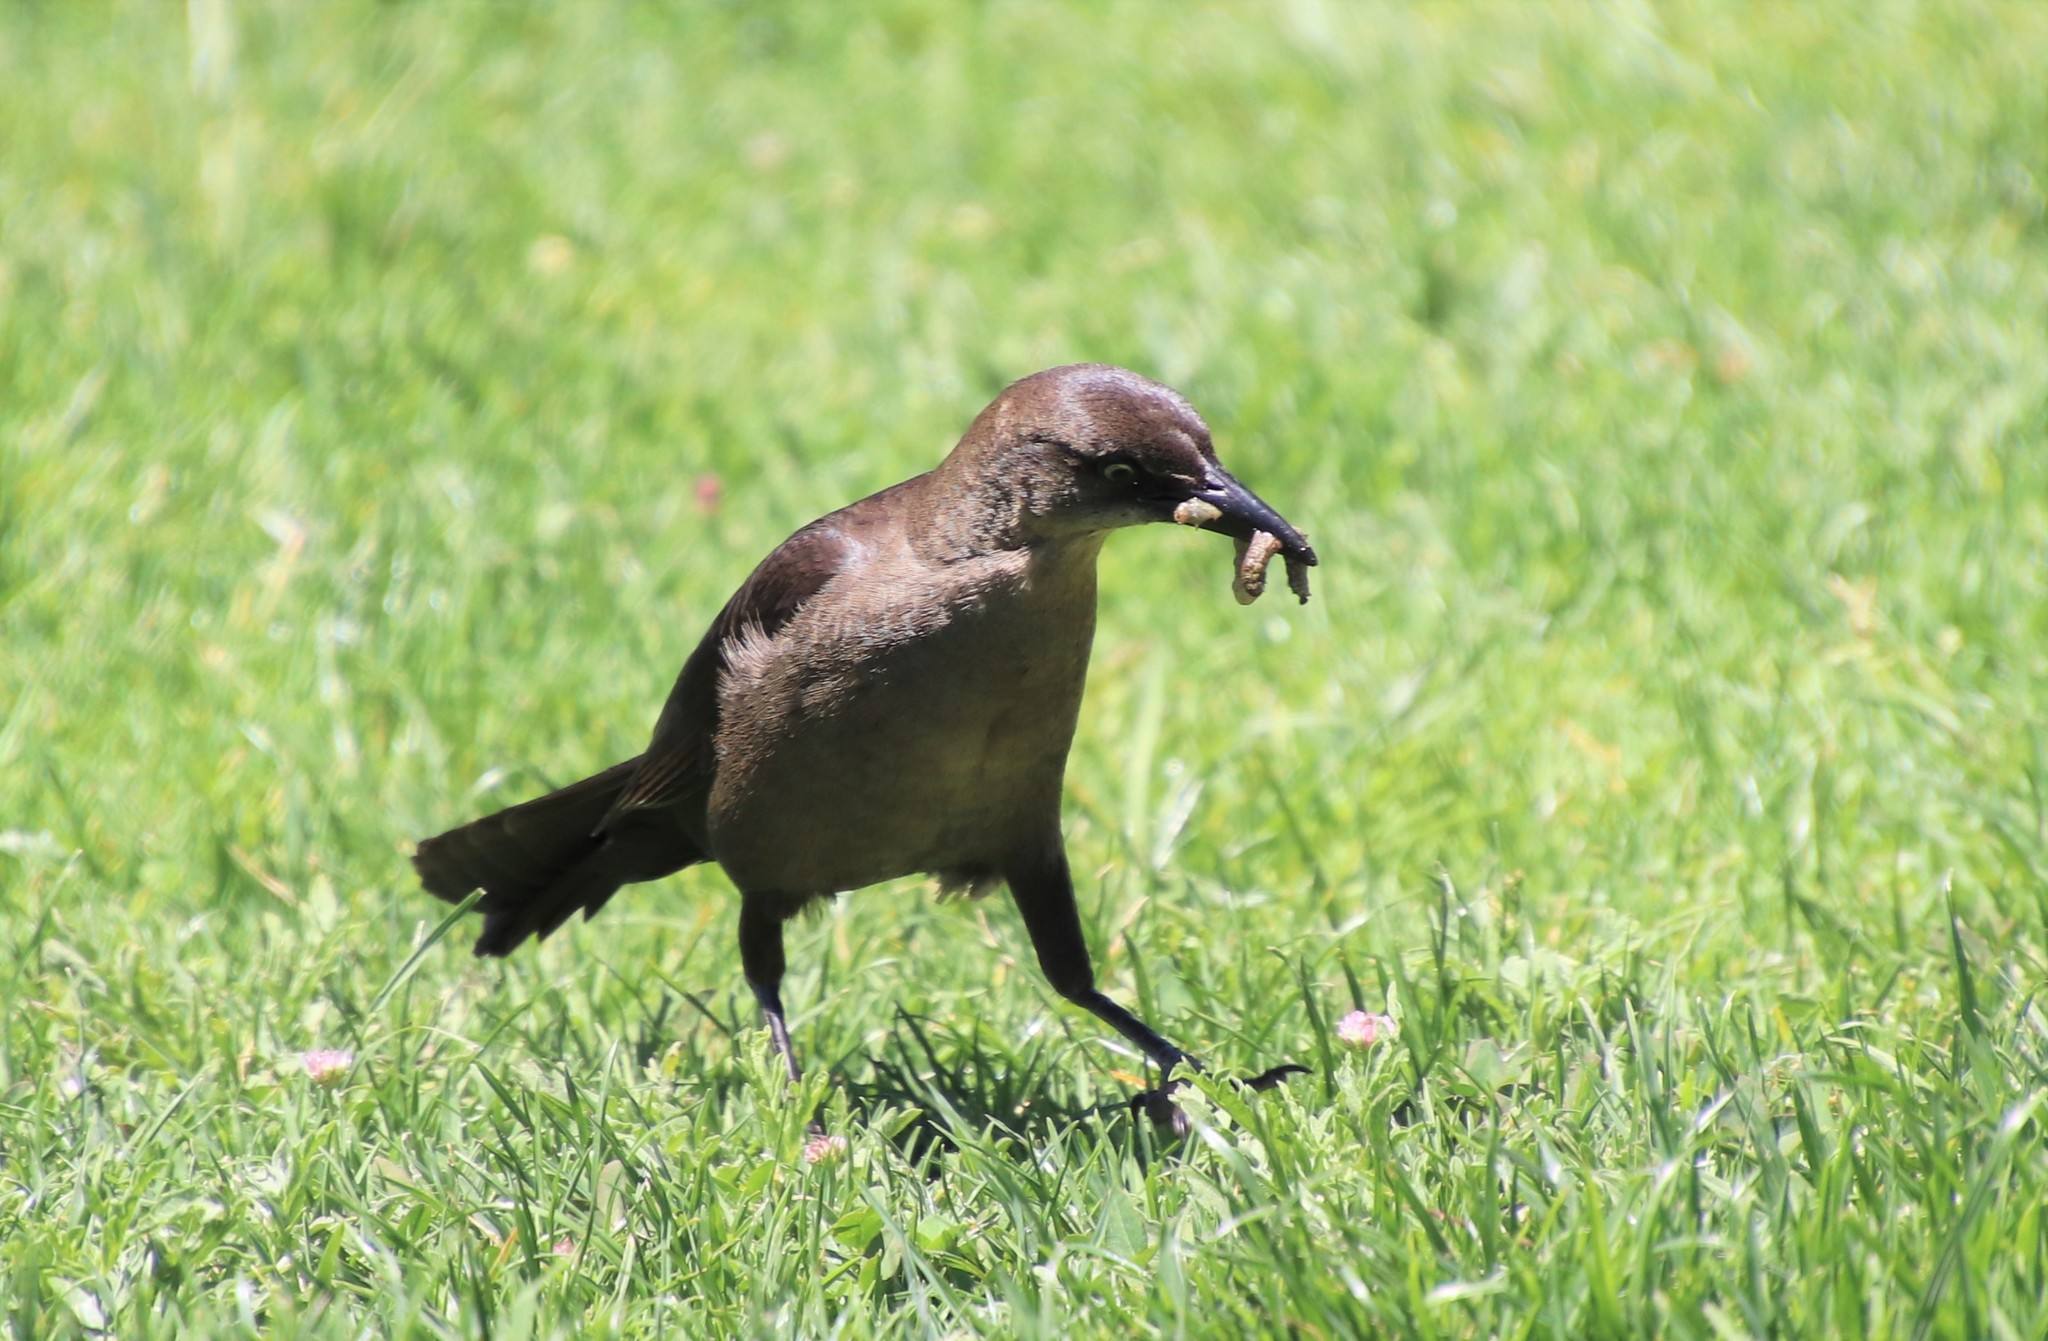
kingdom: Animalia
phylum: Chordata
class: Aves
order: Passeriformes
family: Icteridae
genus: Quiscalus
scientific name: Quiscalus mexicanus
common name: Great-tailed grackle
